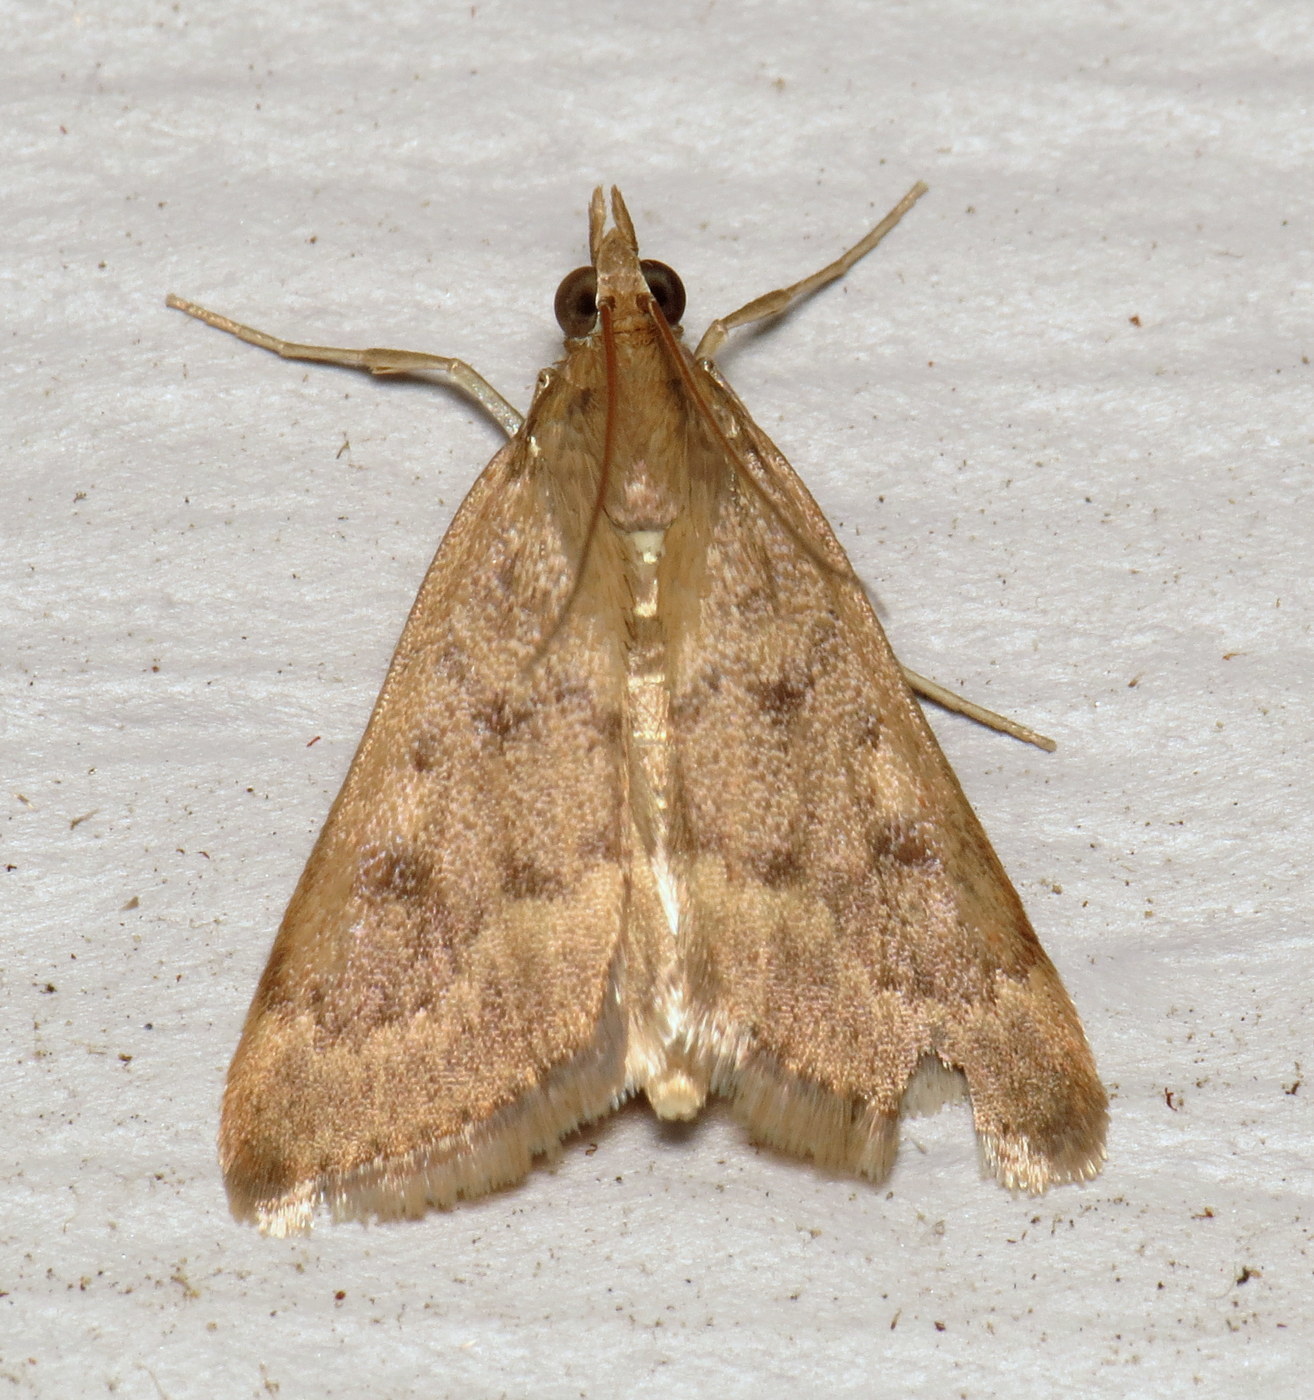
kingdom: Animalia
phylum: Arthropoda
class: Insecta
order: Lepidoptera
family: Crambidae
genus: Achyra
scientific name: Achyra rantalis
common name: Garden webworm
